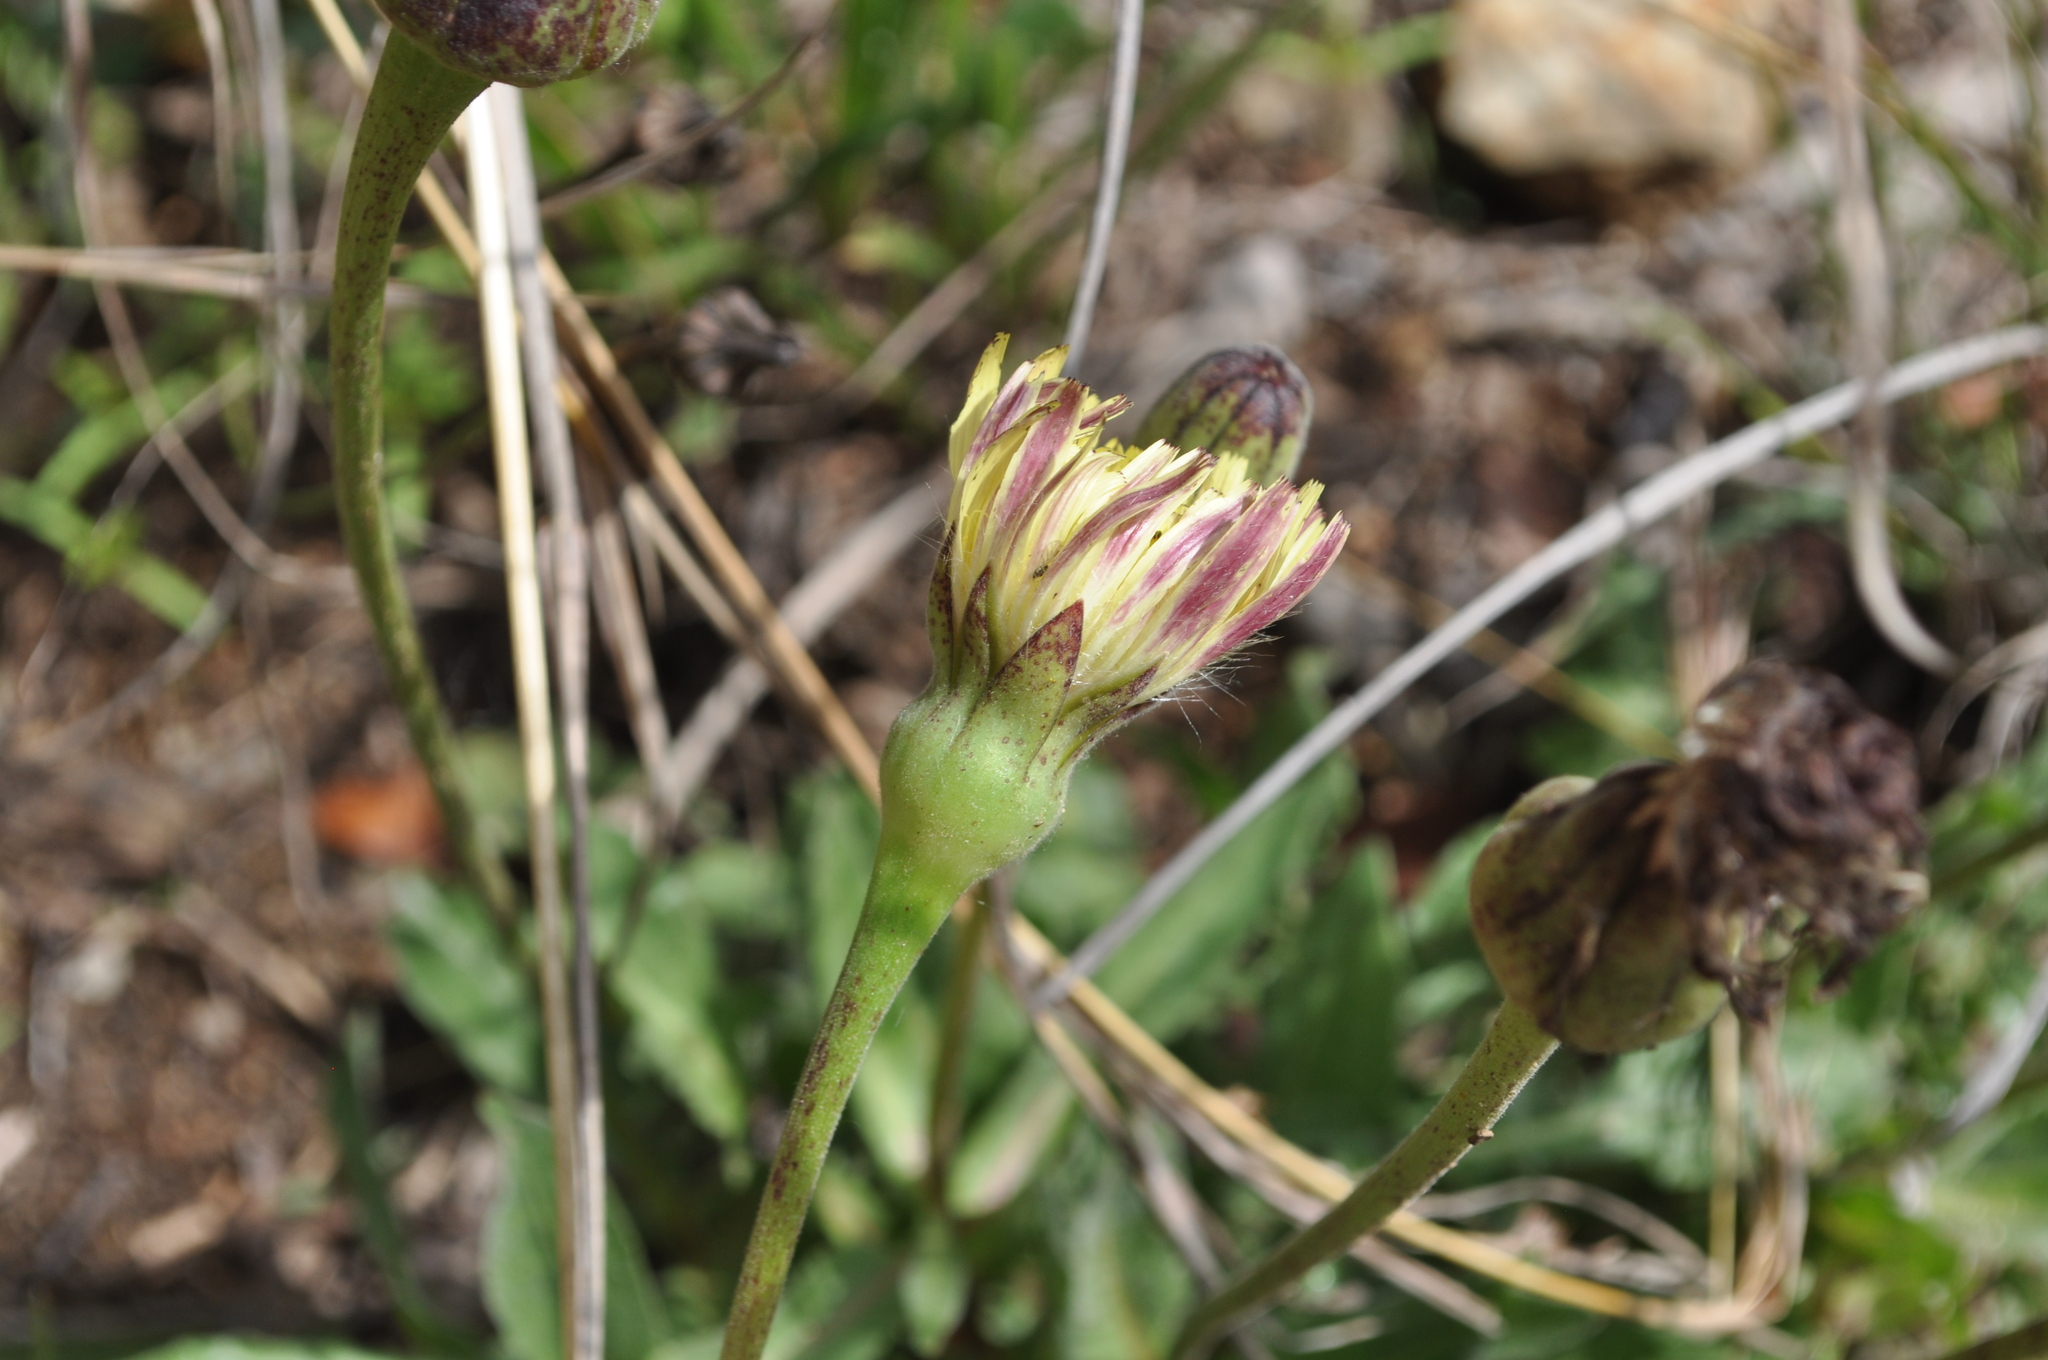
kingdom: Plantae
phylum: Tracheophyta
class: Magnoliopsida
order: Asterales
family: Asteraceae
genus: Urospermum
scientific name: Urospermum dalechampii
